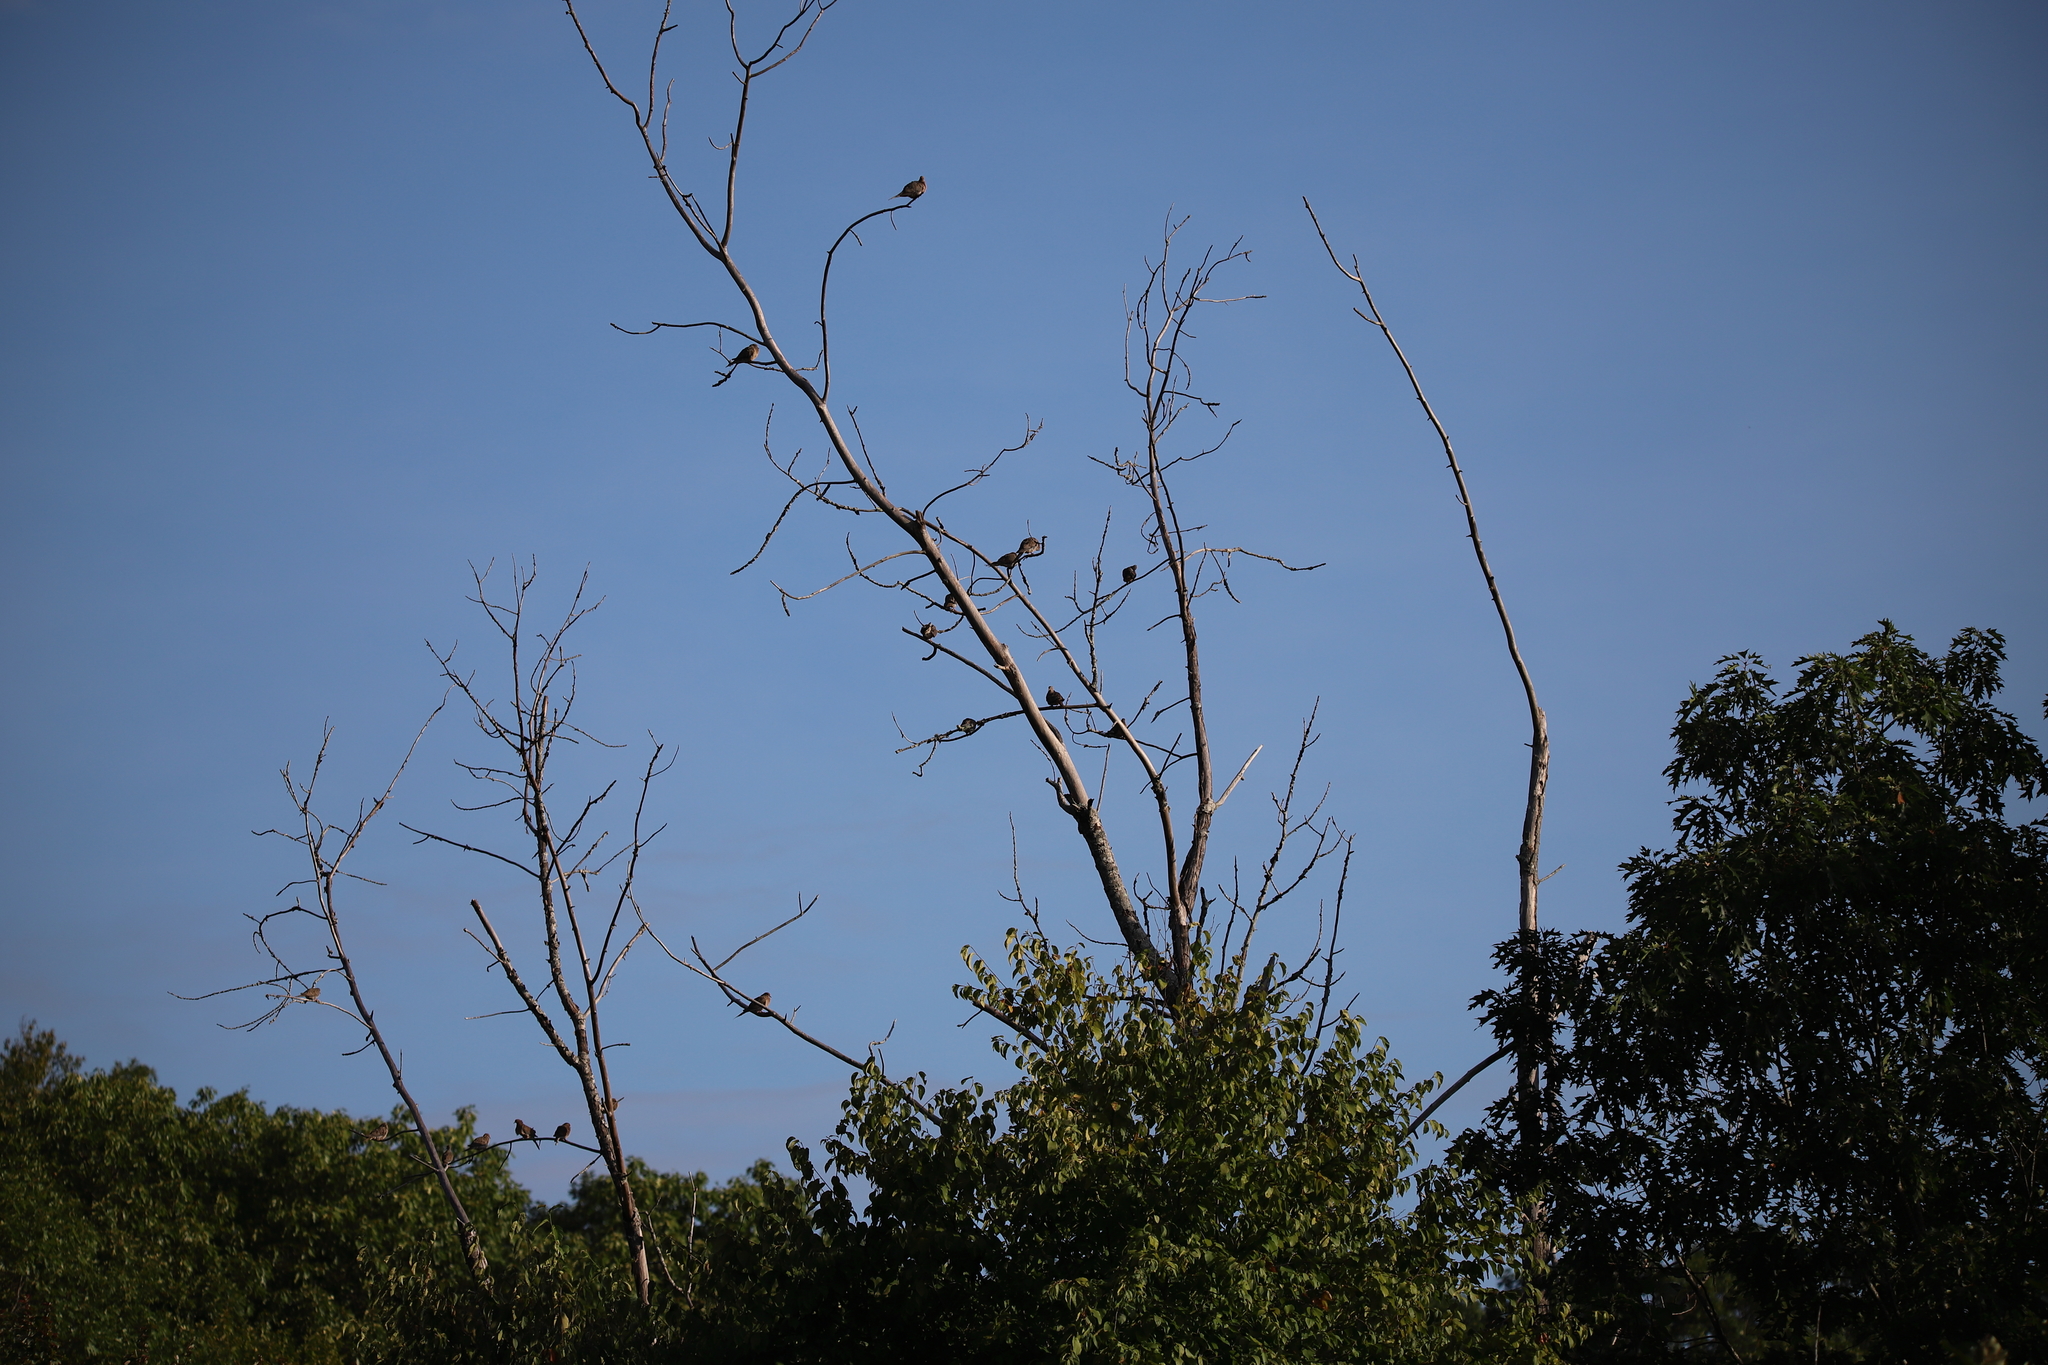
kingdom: Animalia
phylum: Chordata
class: Aves
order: Columbiformes
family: Columbidae
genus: Zenaida
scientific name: Zenaida macroura
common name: Mourning dove
